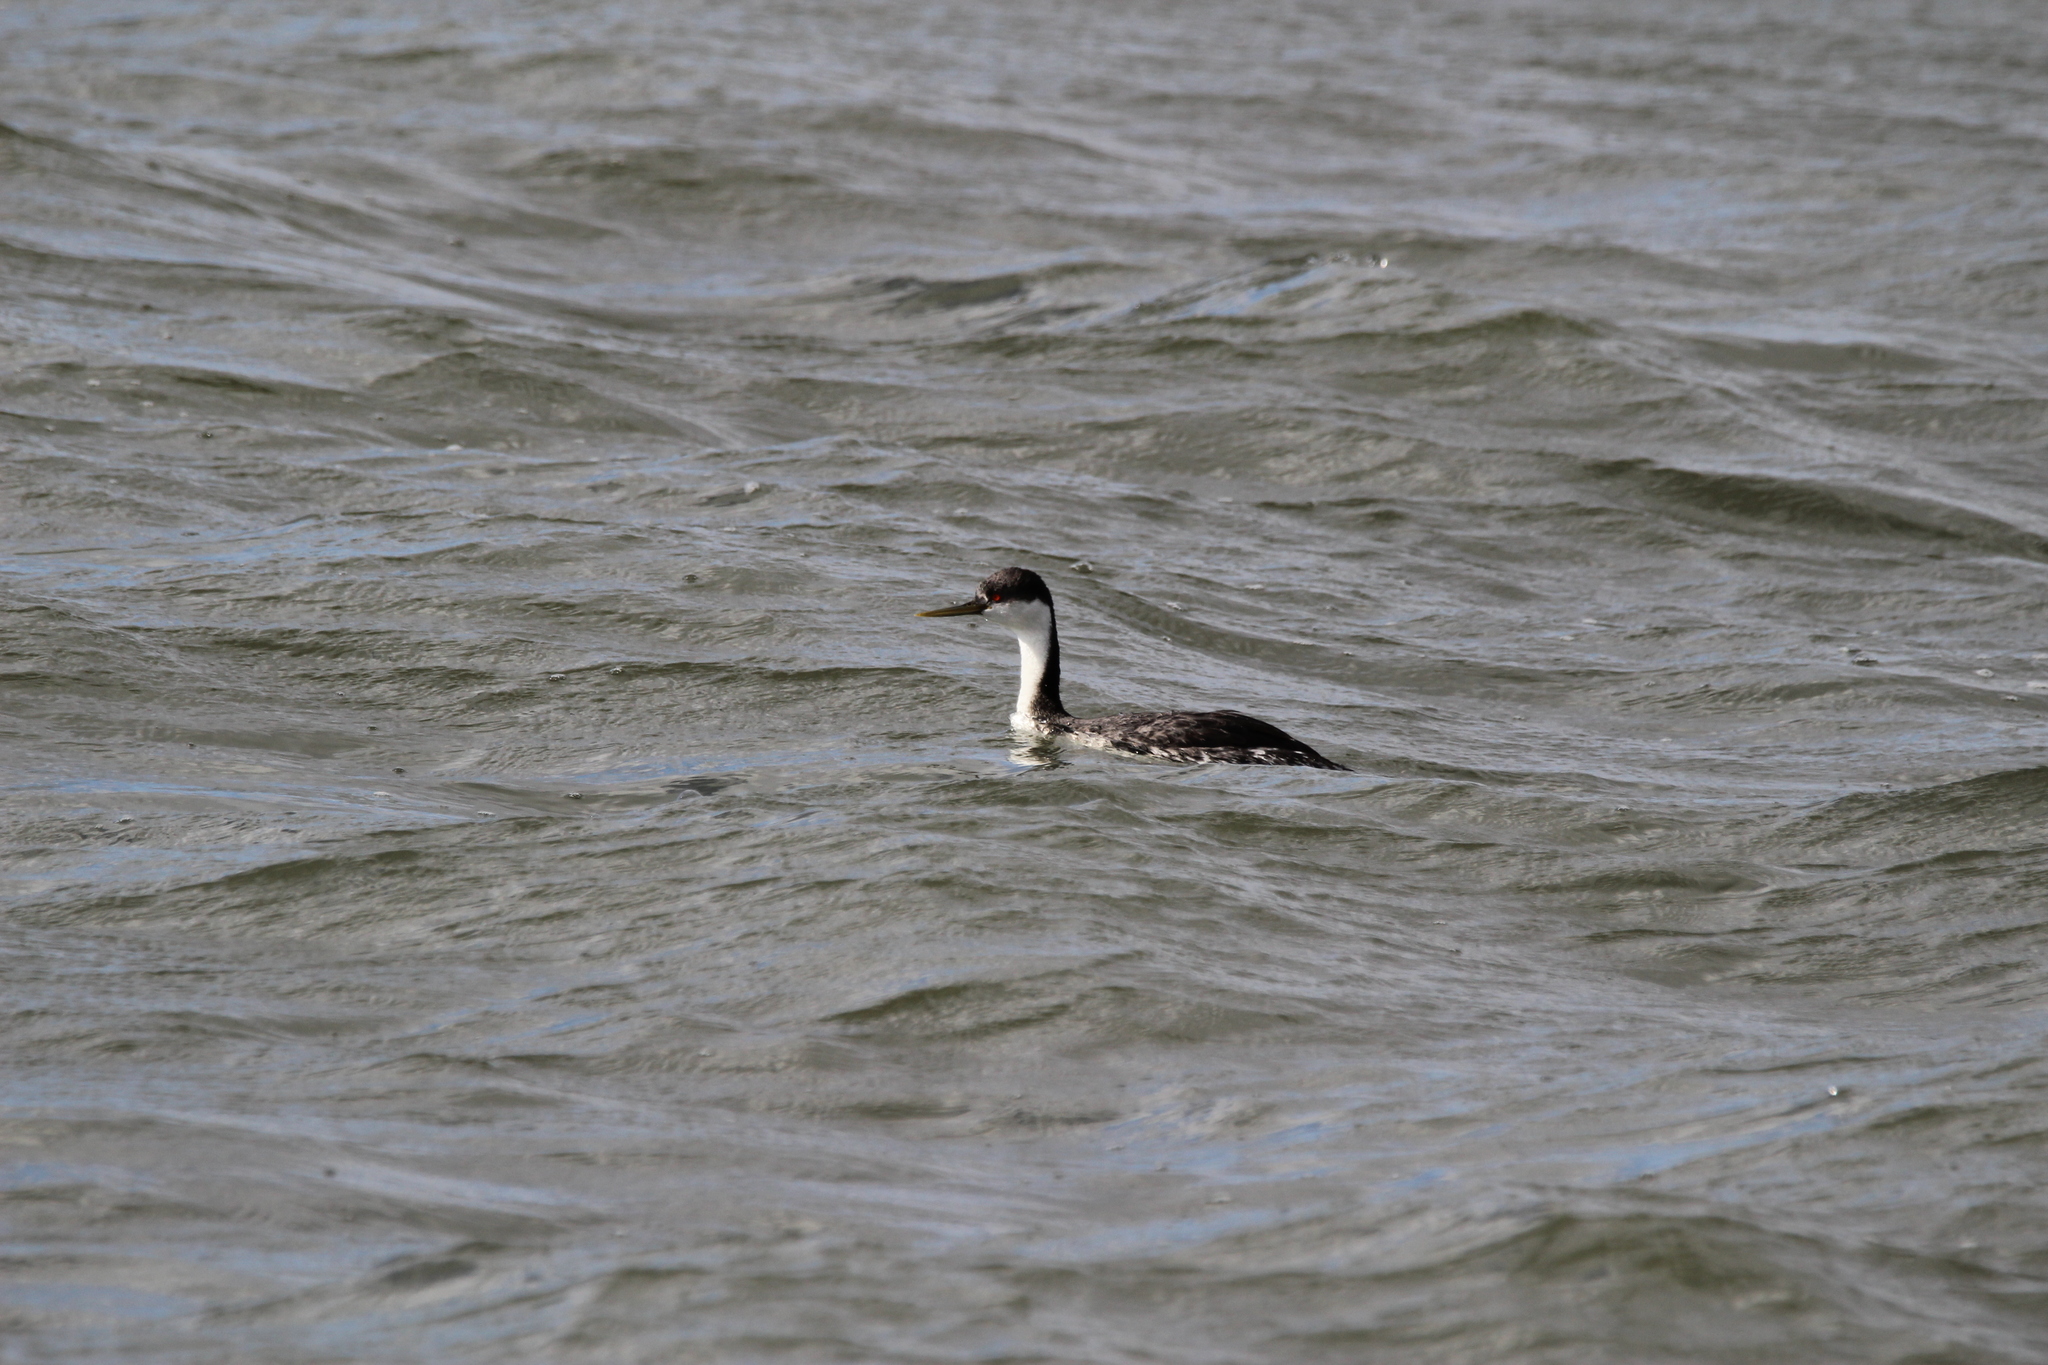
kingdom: Animalia
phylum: Chordata
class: Aves
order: Podicipediformes
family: Podicipedidae
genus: Aechmophorus
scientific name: Aechmophorus occidentalis
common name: Western grebe
